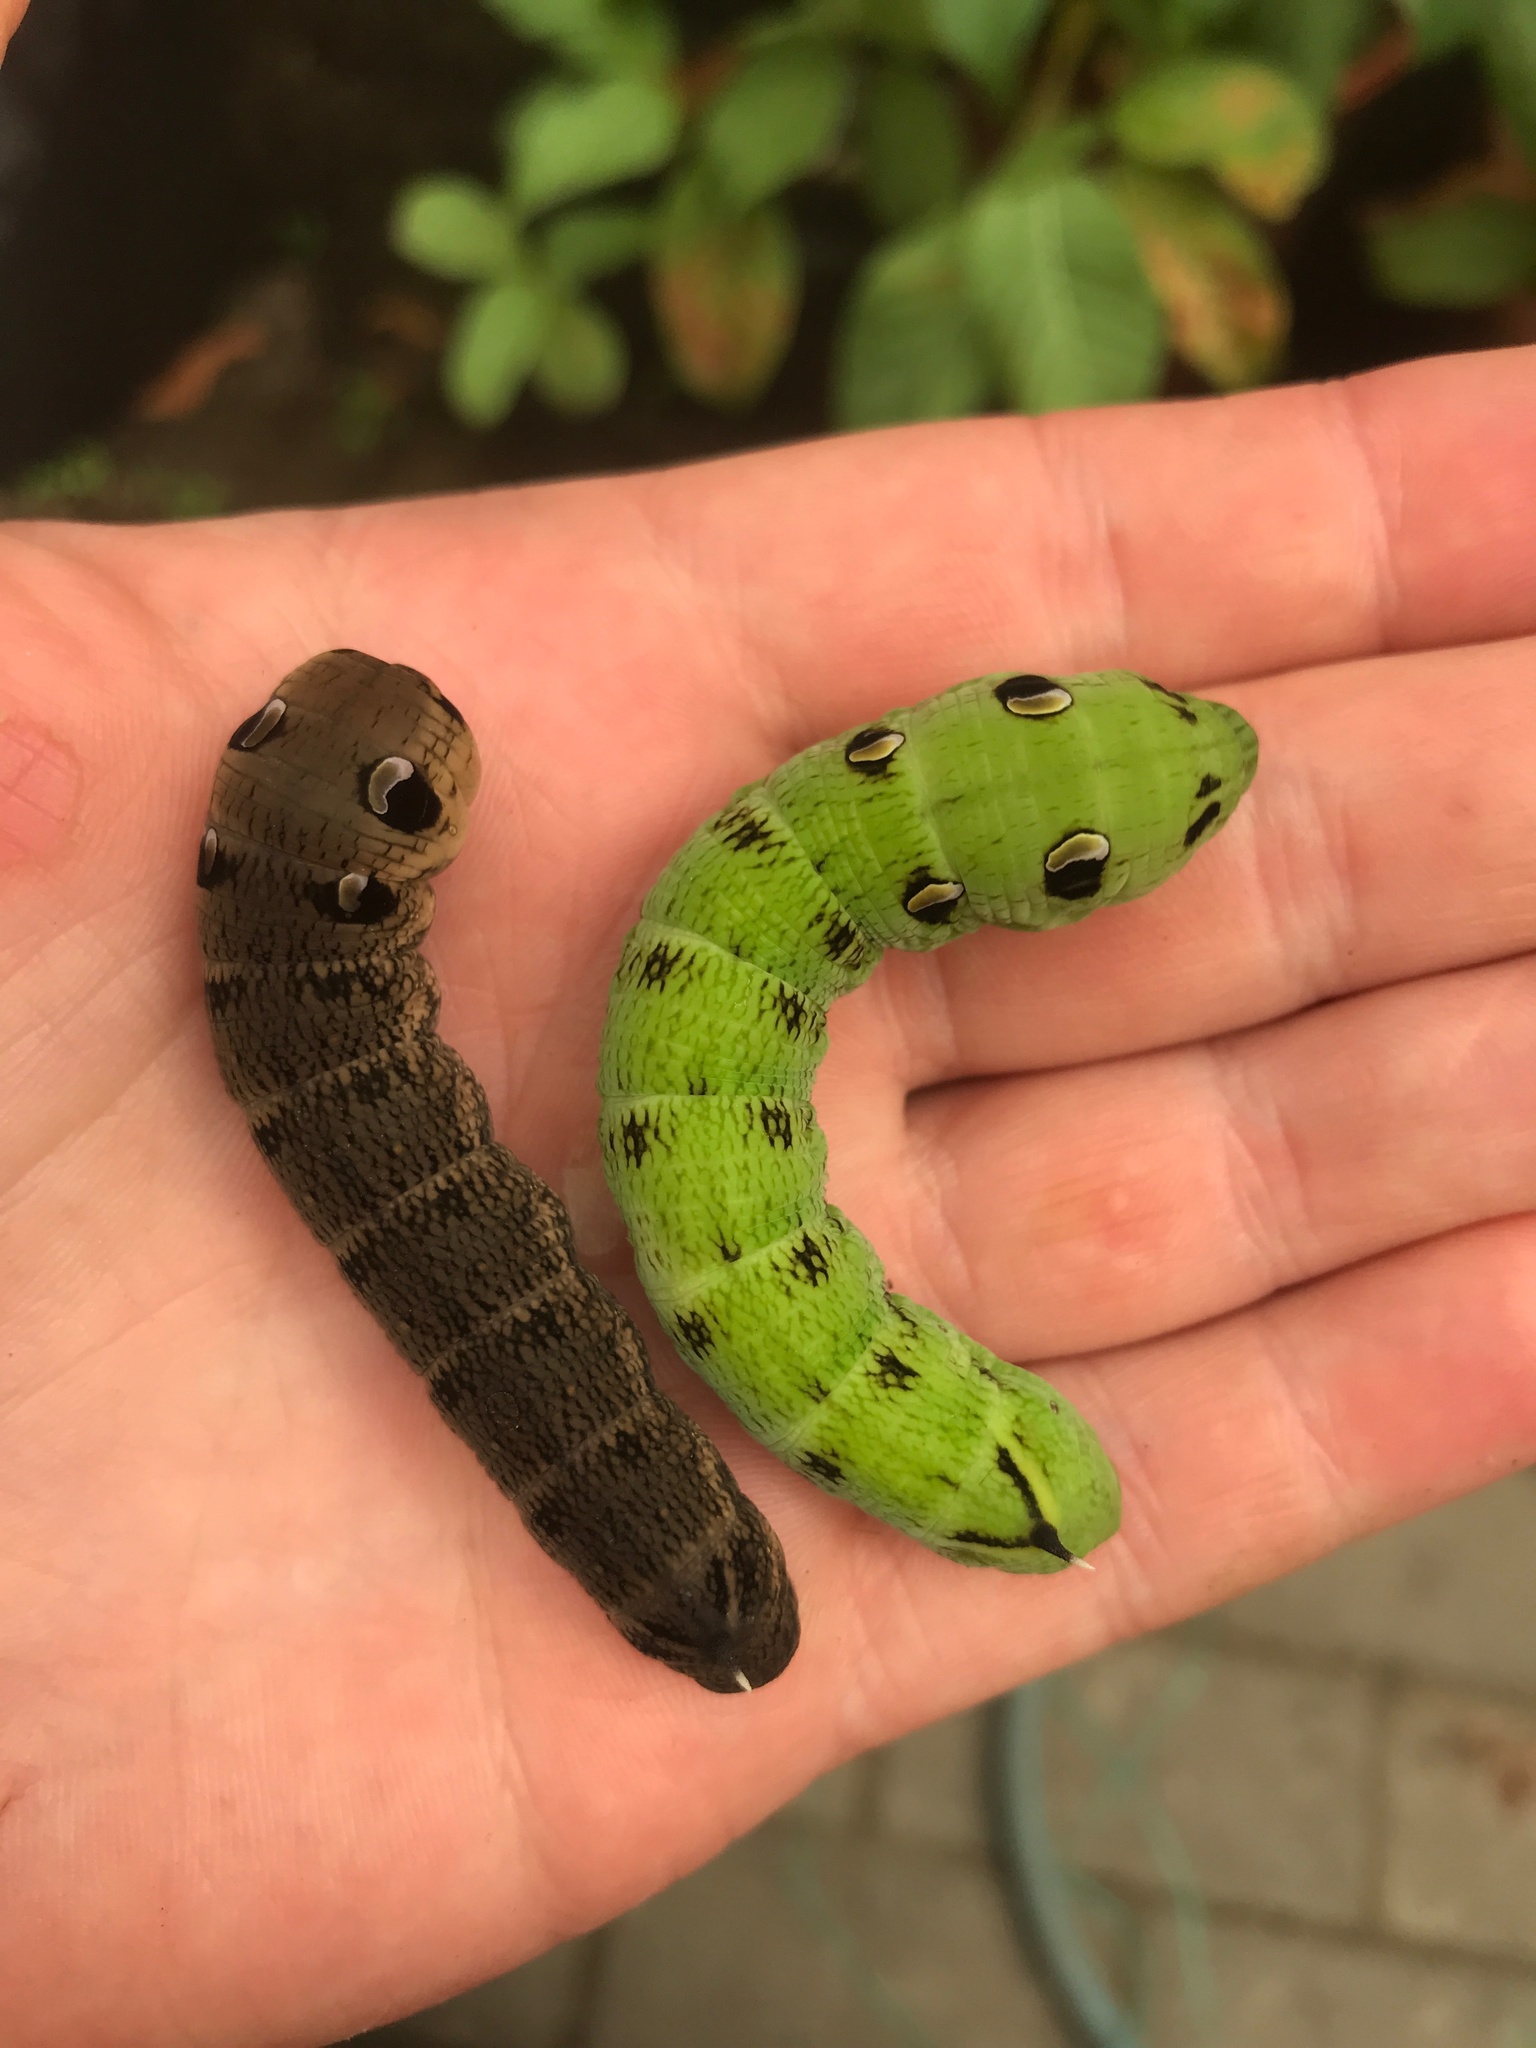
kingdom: Animalia
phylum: Arthropoda
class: Insecta
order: Lepidoptera
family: Sphingidae
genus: Deilephila
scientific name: Deilephila elpenor
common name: Elephant hawk-moth
